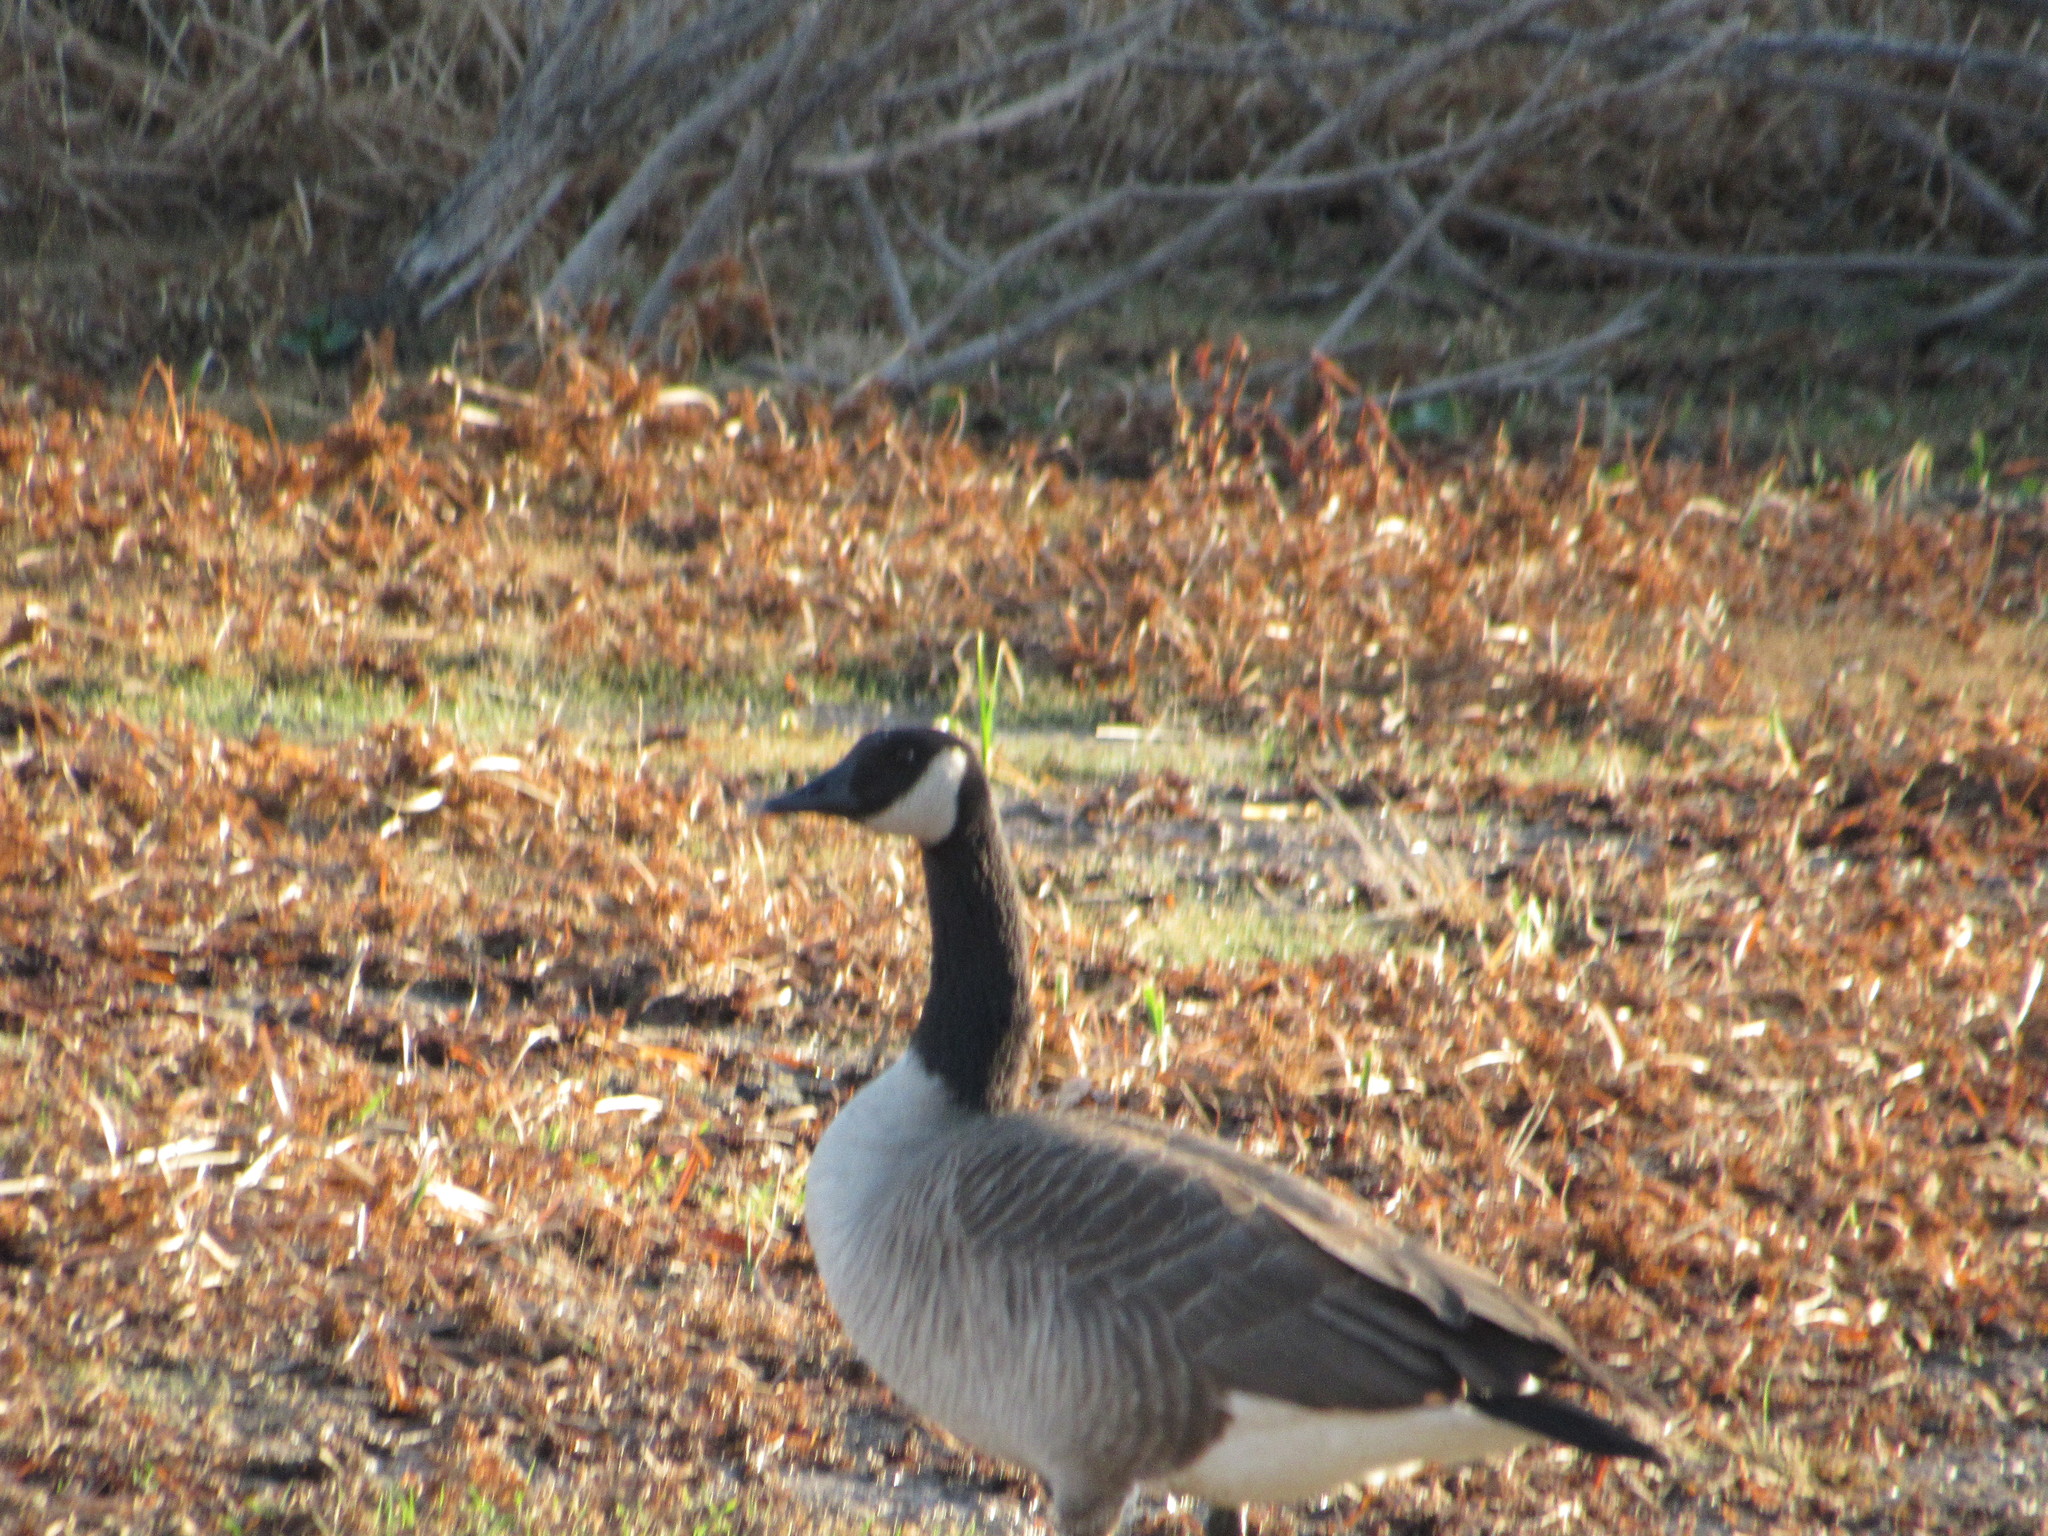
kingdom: Animalia
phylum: Chordata
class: Aves
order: Anseriformes
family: Anatidae
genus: Branta
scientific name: Branta canadensis
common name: Canada goose
